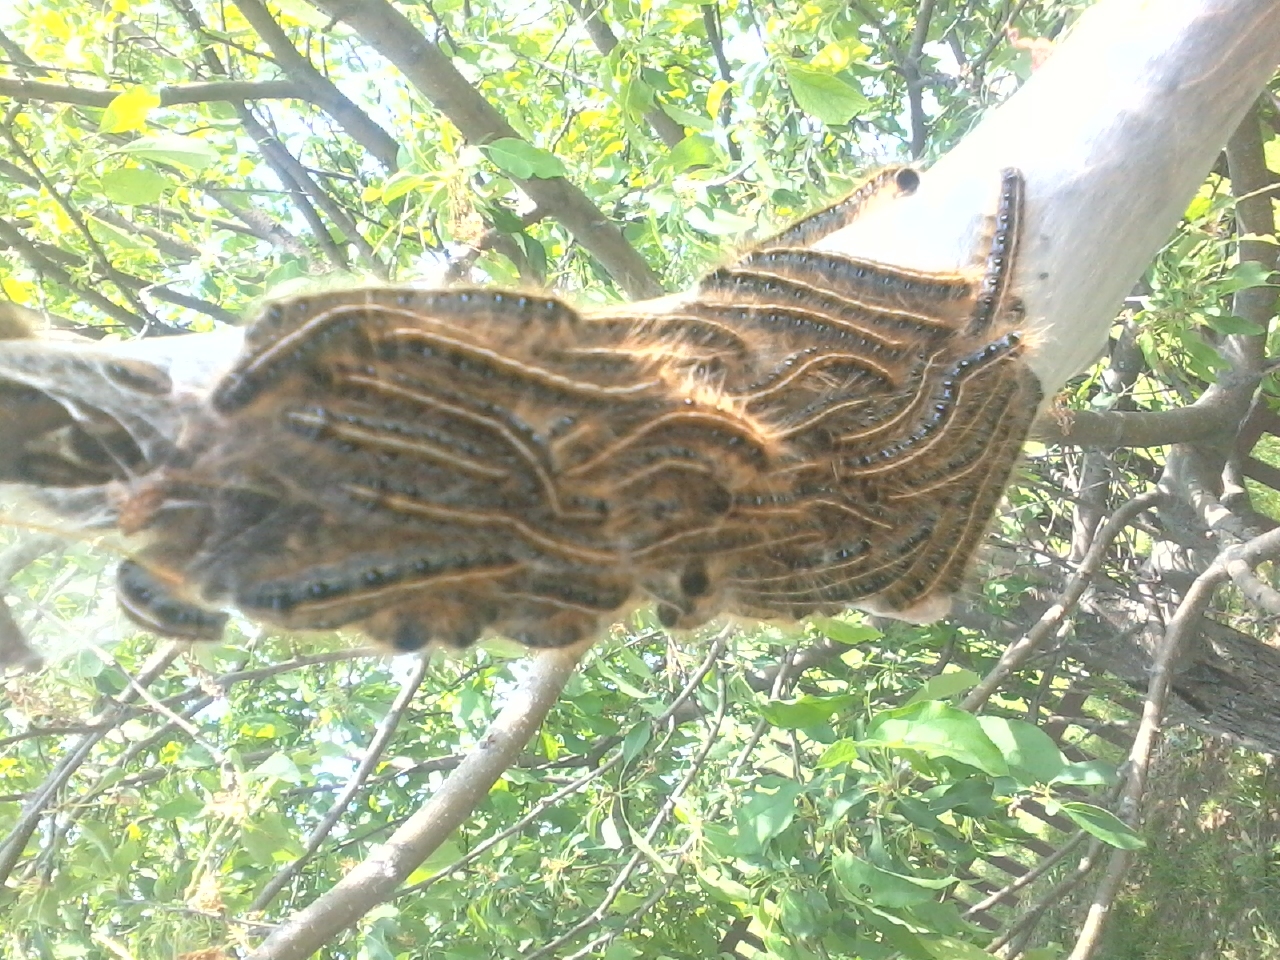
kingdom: Animalia
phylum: Arthropoda
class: Insecta
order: Lepidoptera
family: Lasiocampidae
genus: Malacosoma
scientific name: Malacosoma americana
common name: Eastern tent caterpillar moth
